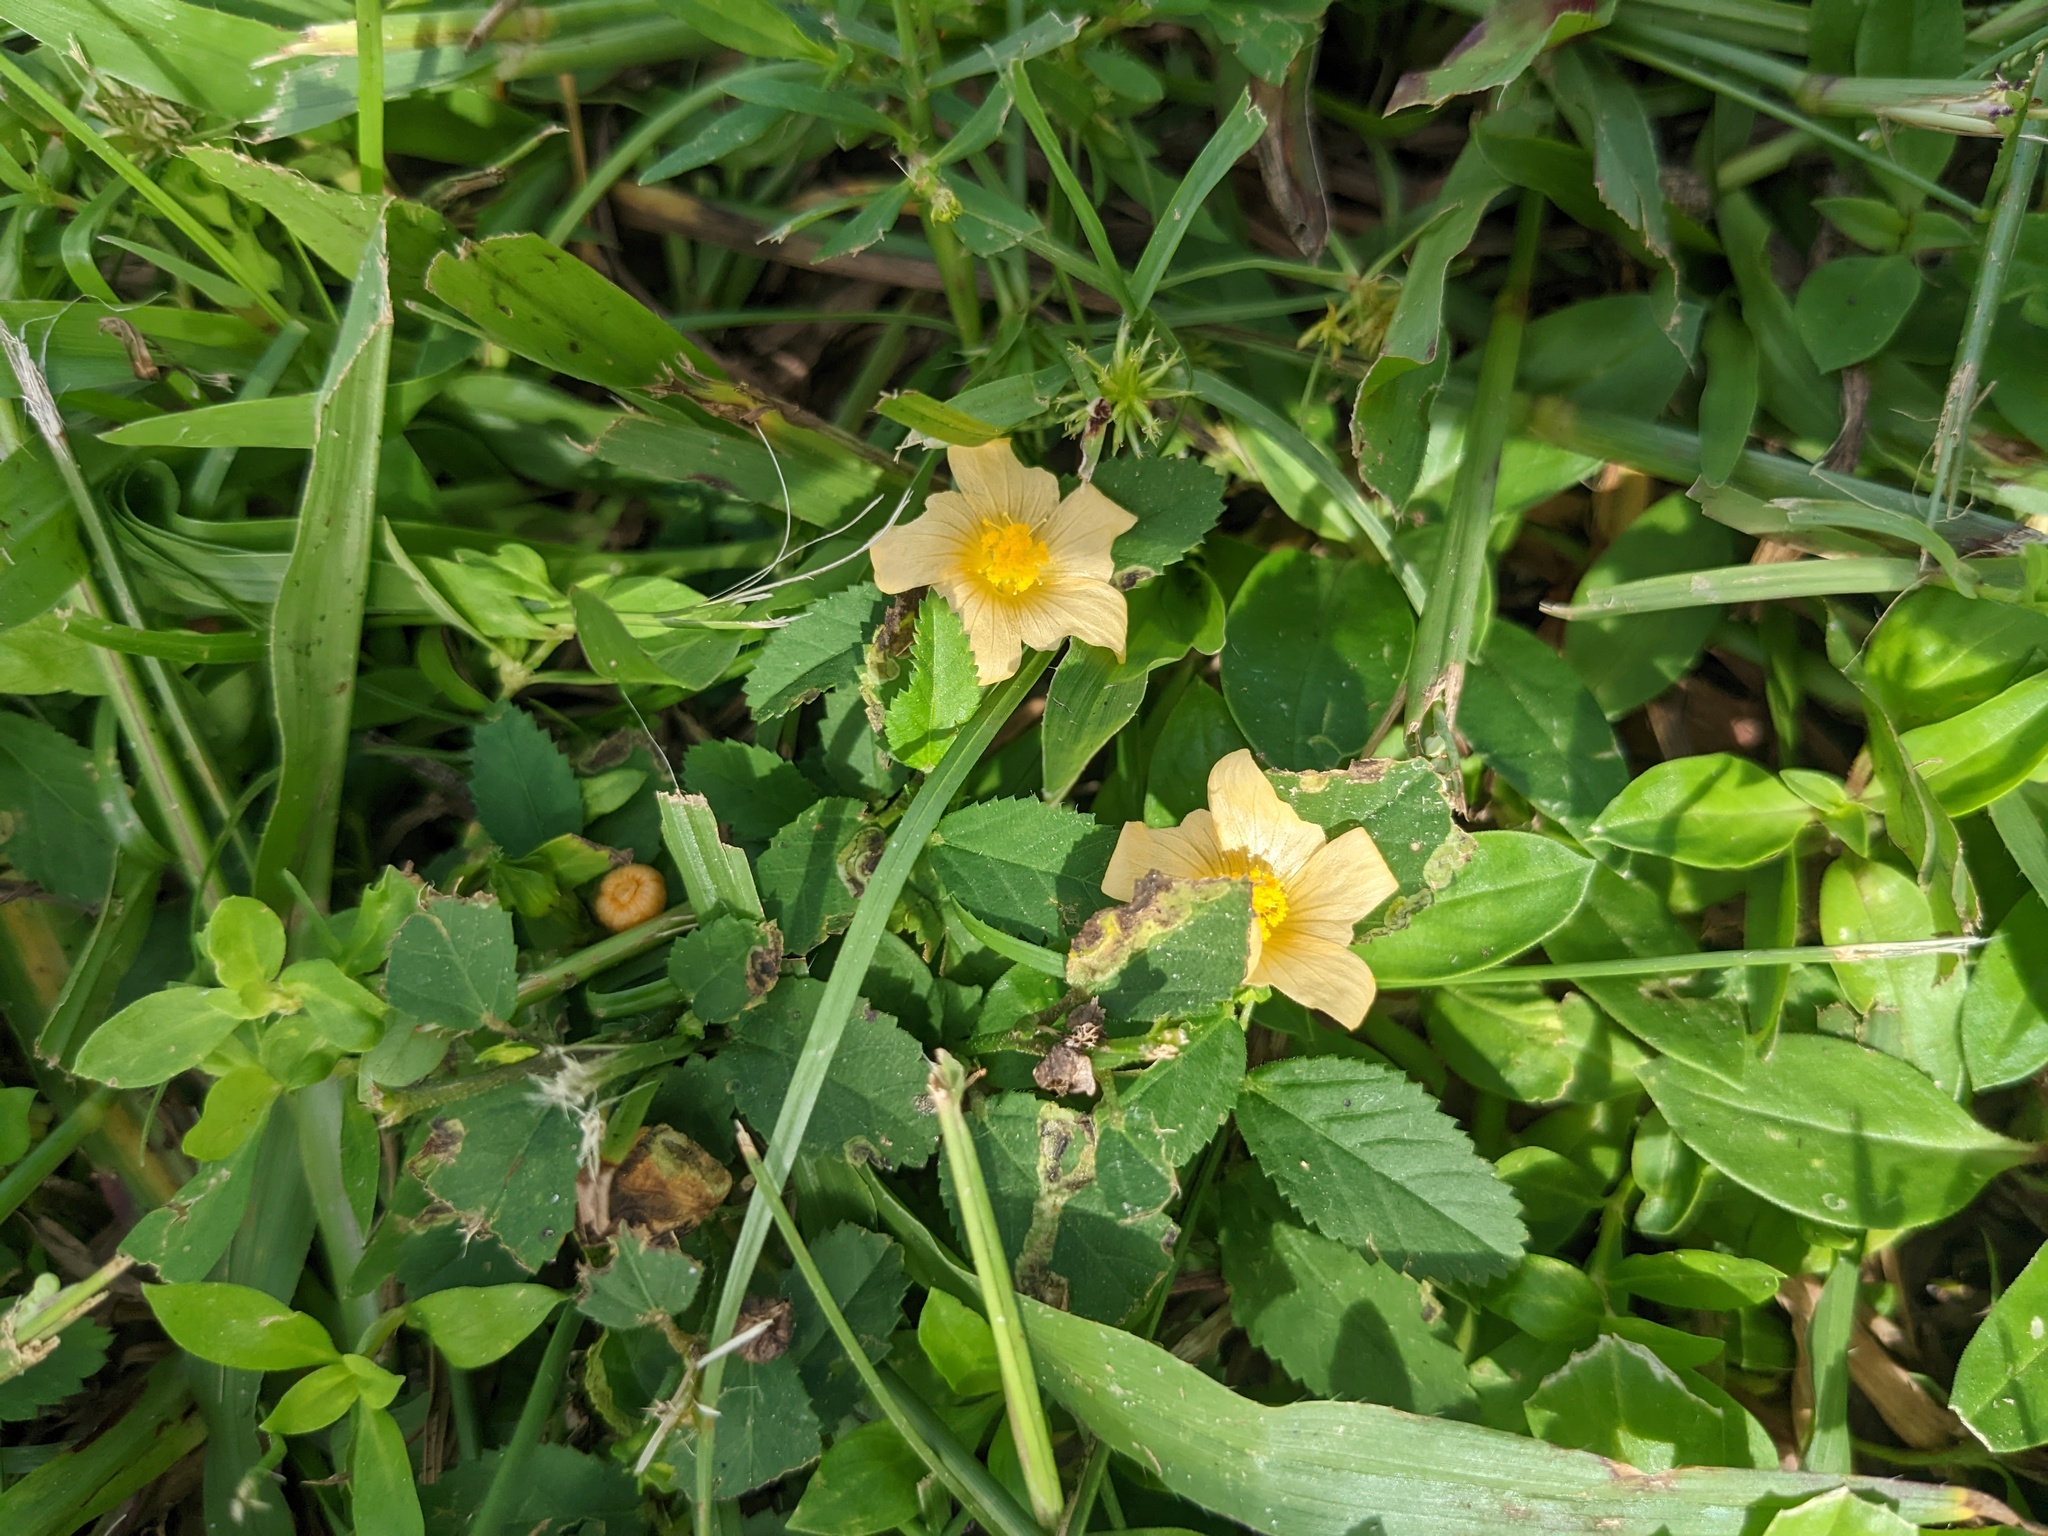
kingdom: Plantae
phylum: Tracheophyta
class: Magnoliopsida
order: Malvales
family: Malvaceae
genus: Sida
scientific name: Sida ulmifolia
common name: Broom weed
